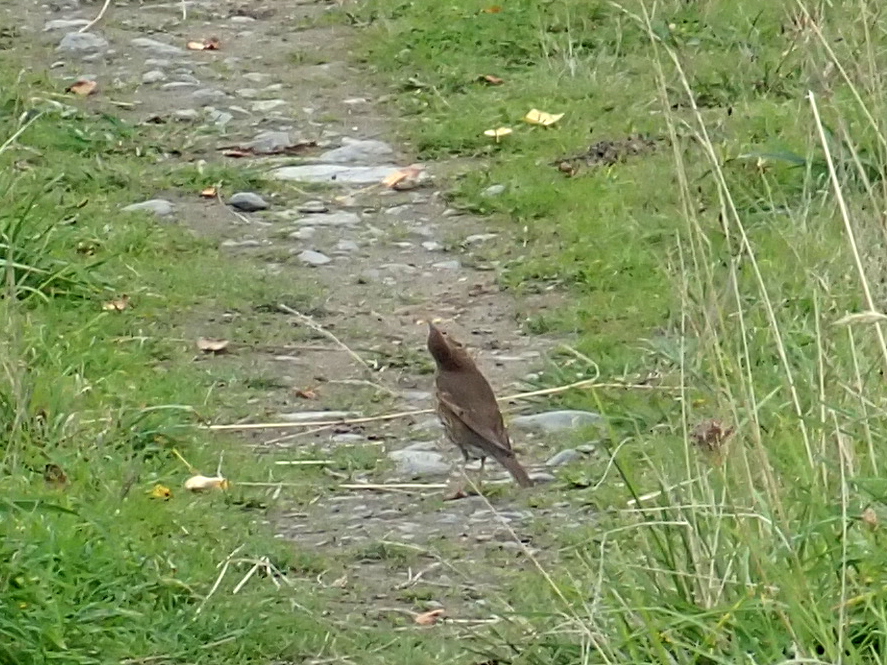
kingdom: Animalia
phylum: Chordata
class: Aves
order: Passeriformes
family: Turdidae
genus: Turdus
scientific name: Turdus philomelos
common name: Song thrush
